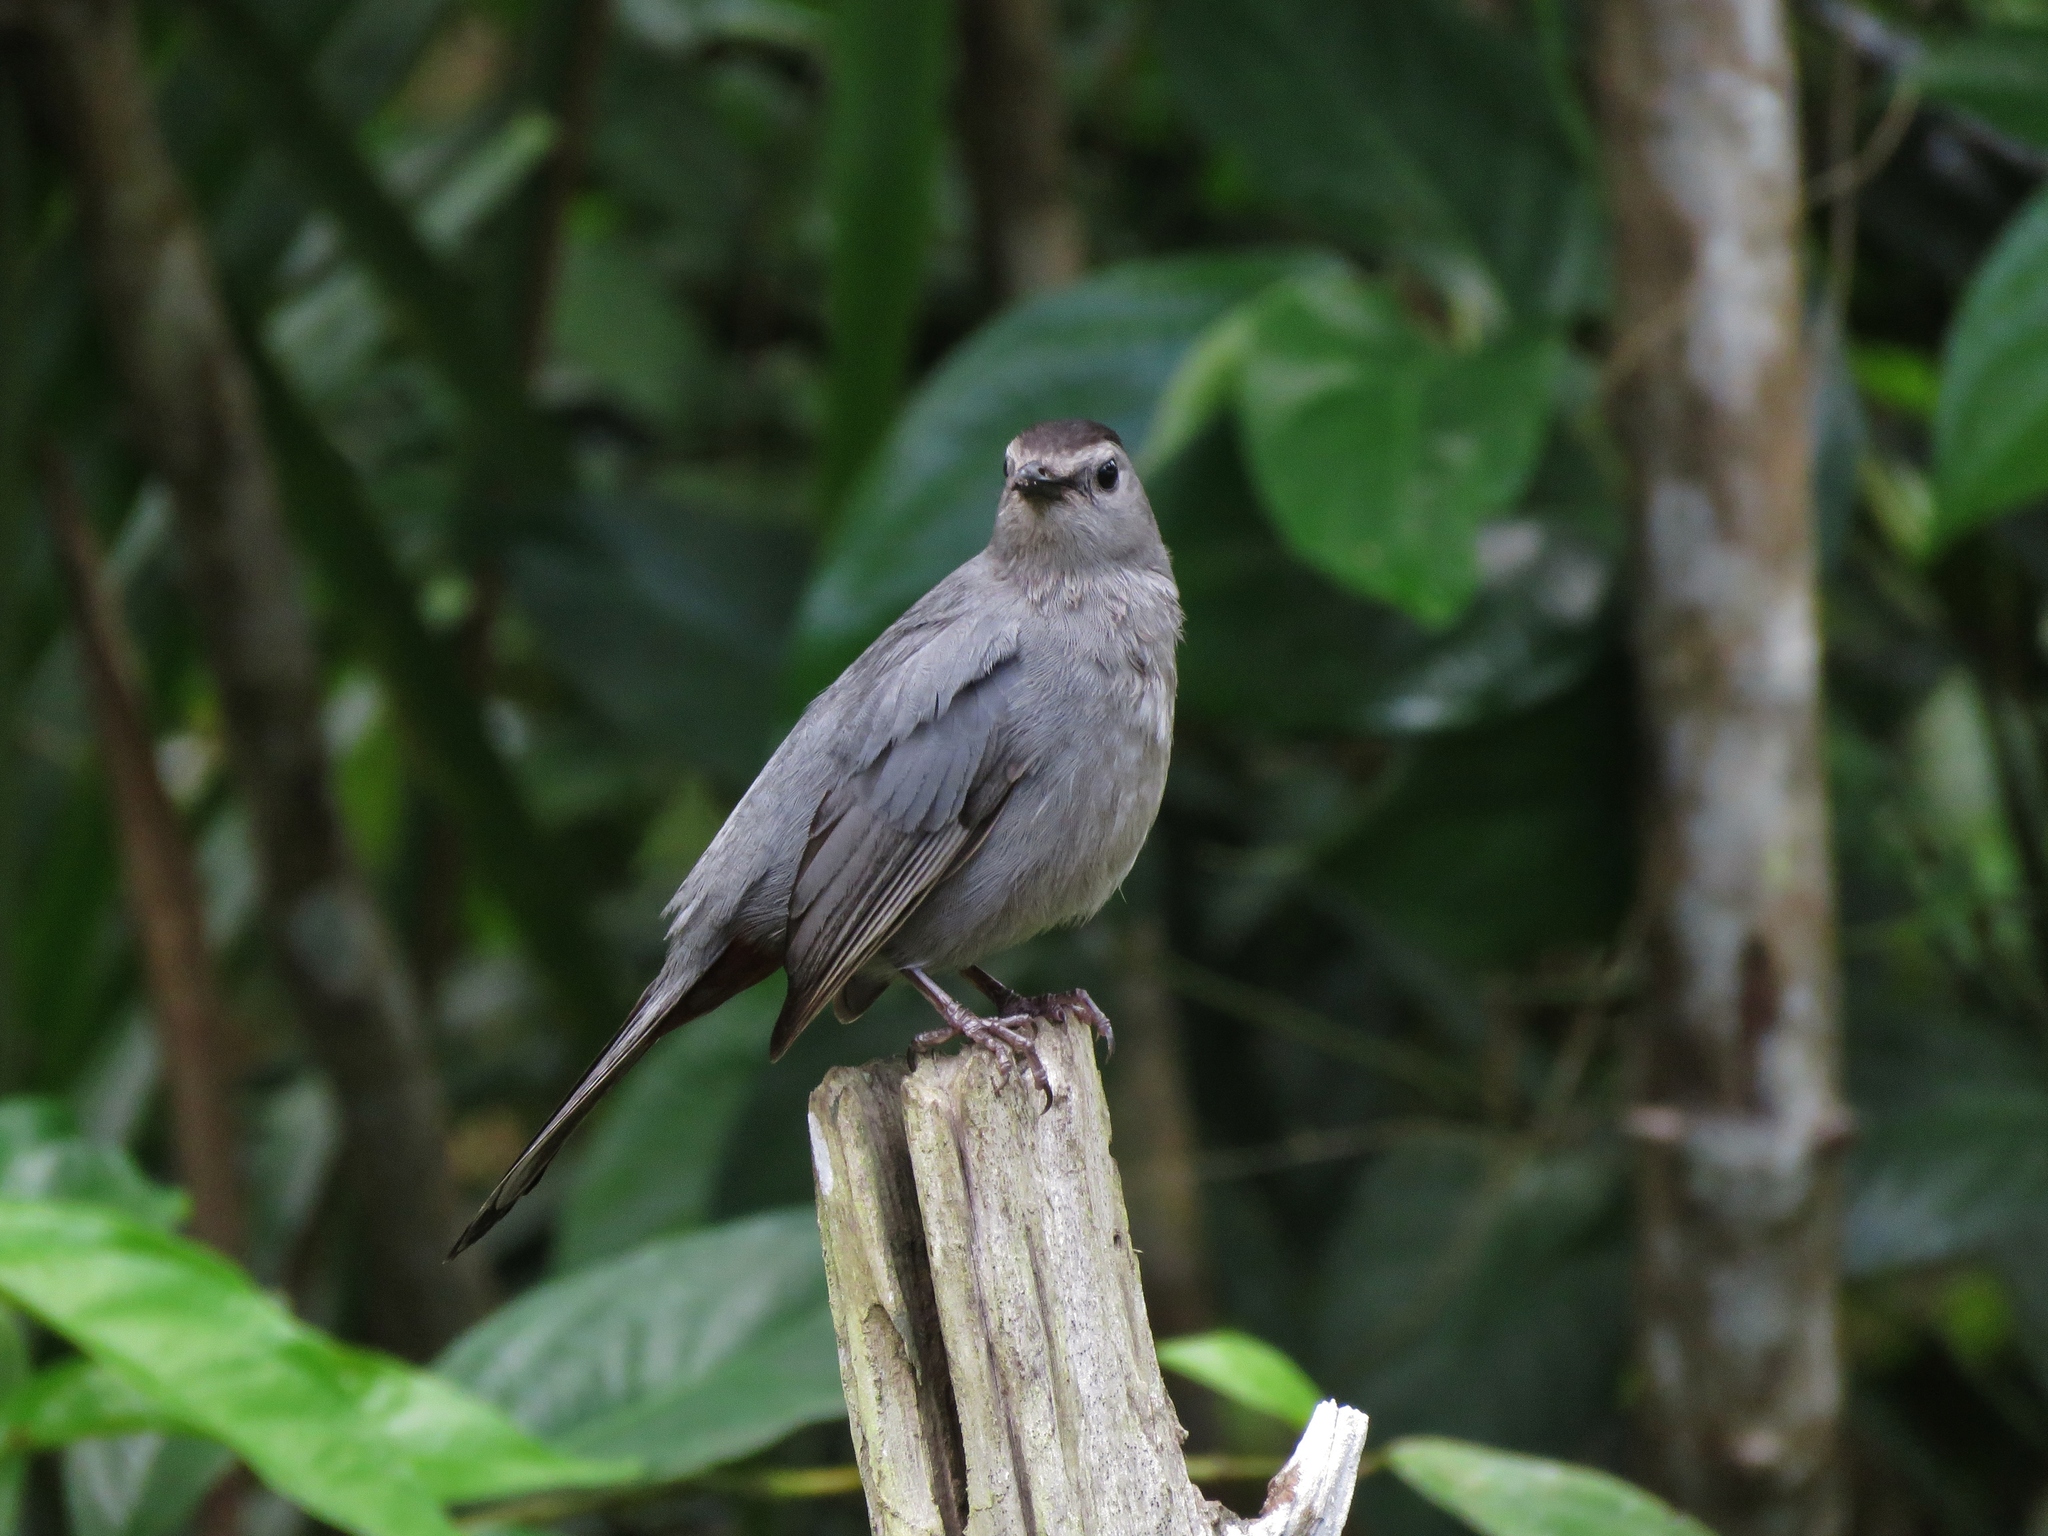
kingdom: Animalia
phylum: Chordata
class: Aves
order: Passeriformes
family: Mimidae
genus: Dumetella
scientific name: Dumetella carolinensis
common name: Gray catbird
